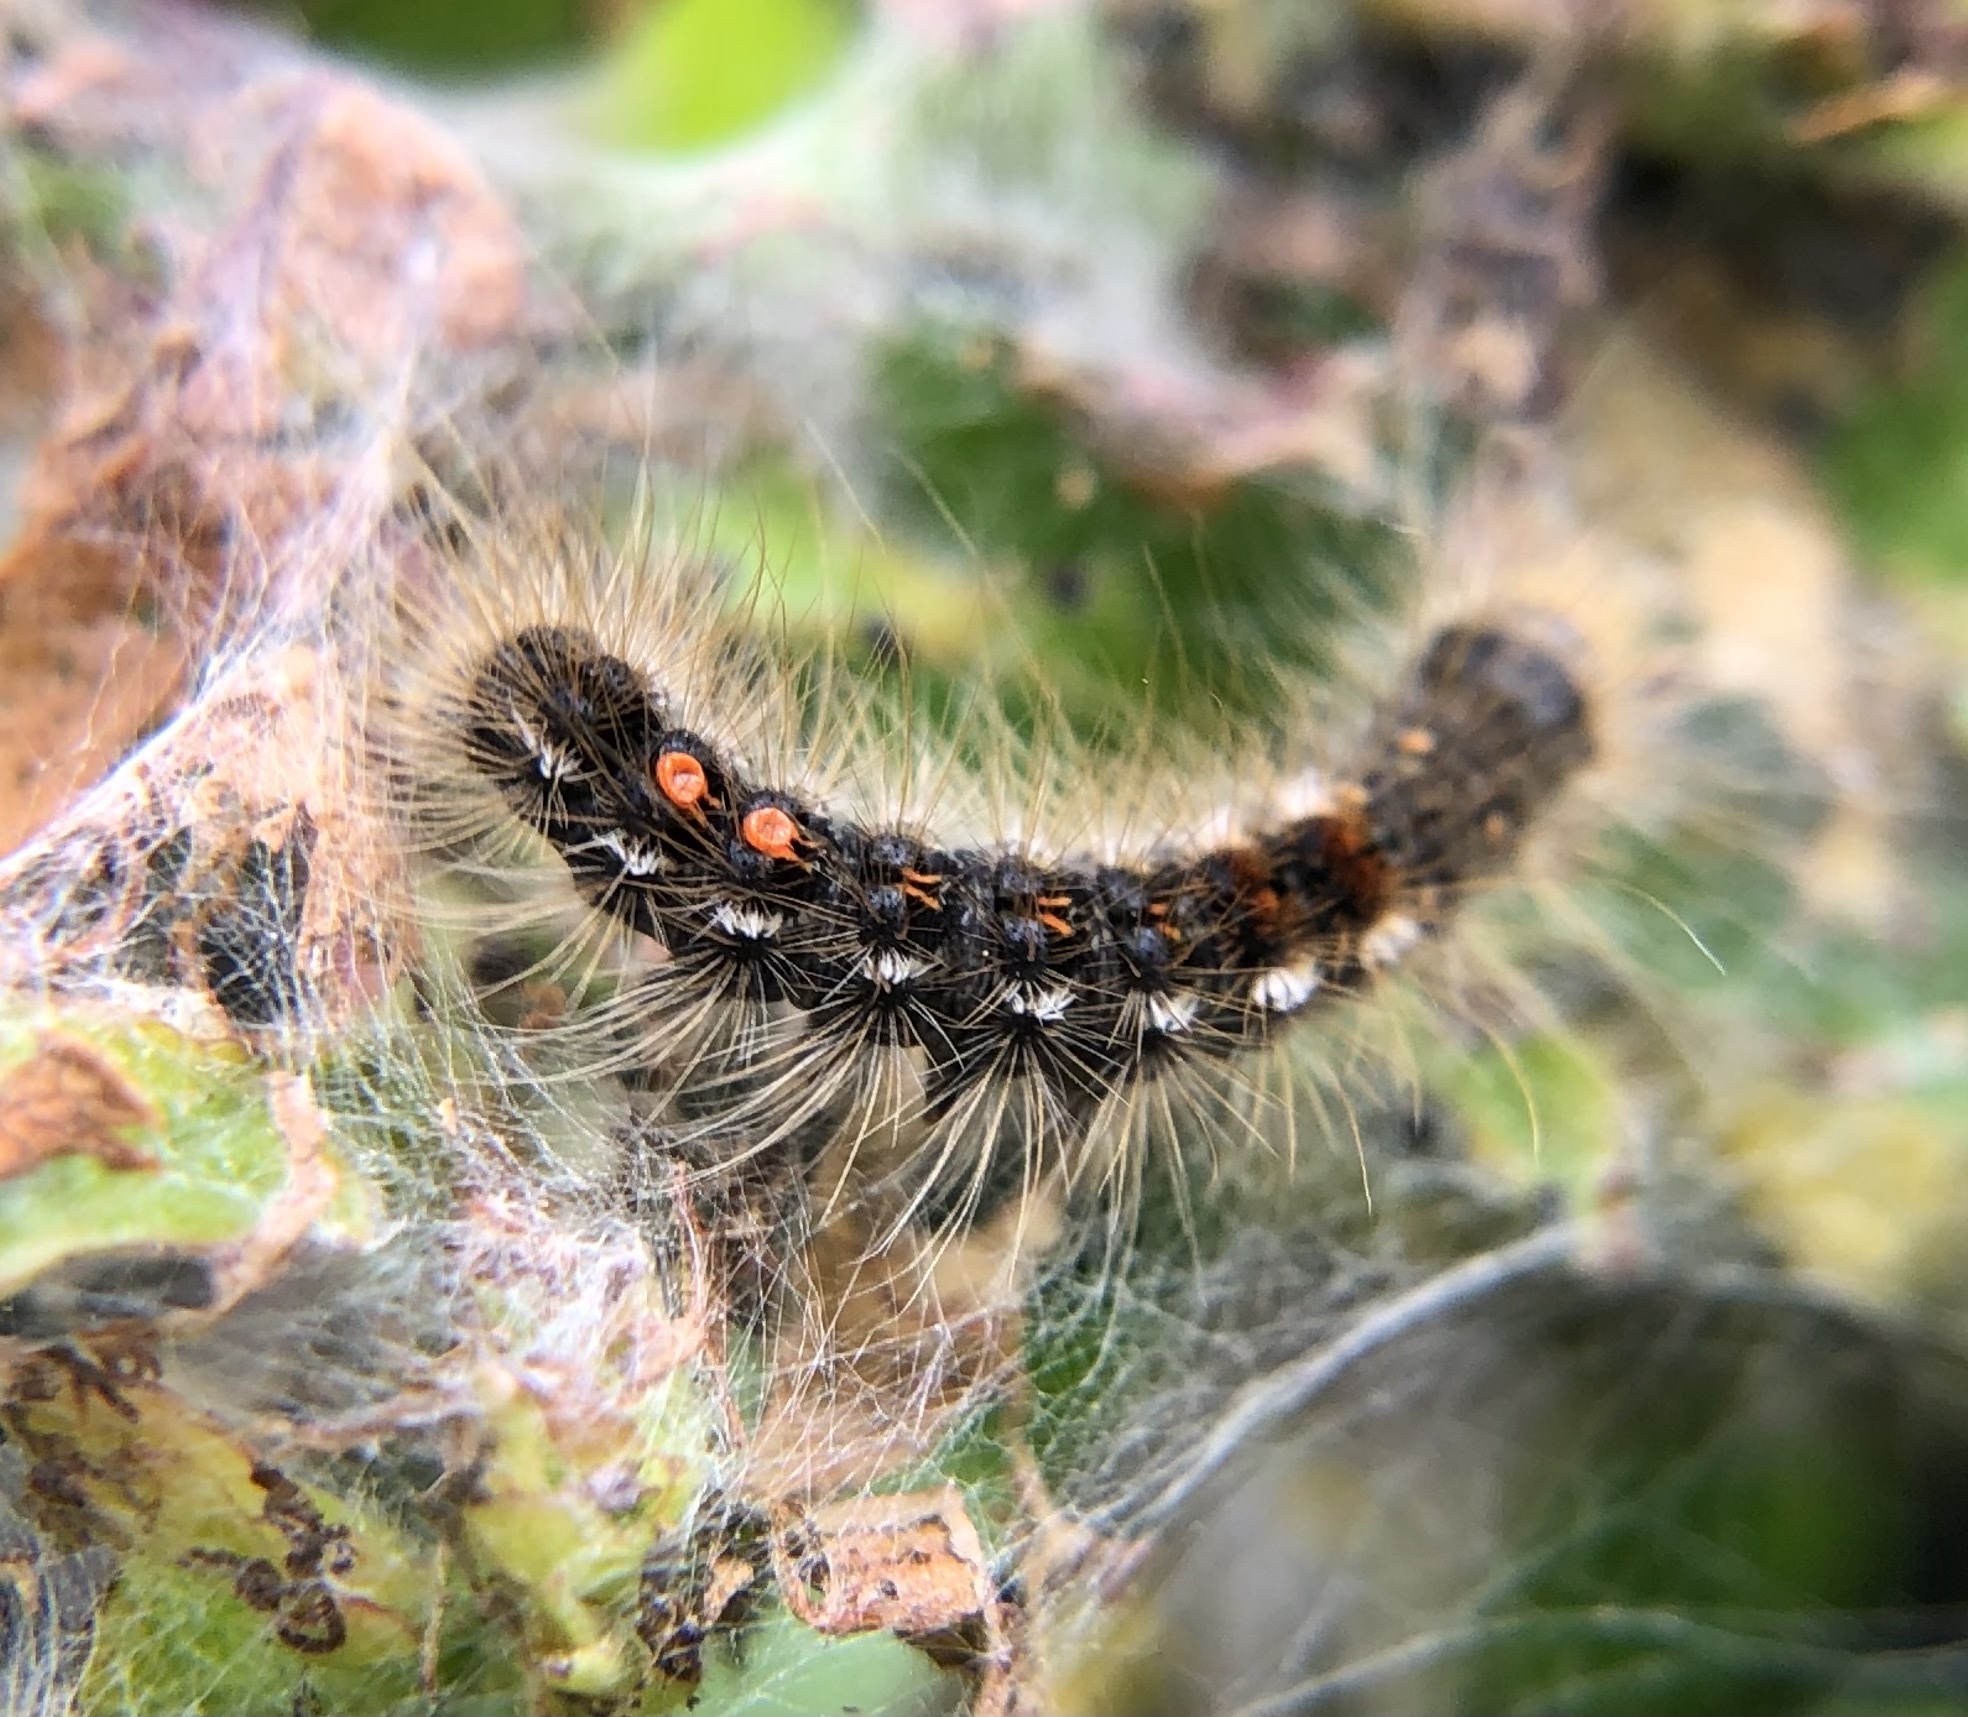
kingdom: Animalia
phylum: Arthropoda
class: Insecta
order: Lepidoptera
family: Erebidae
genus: Euproctis
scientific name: Euproctis chrysorrhoea
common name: Brown-tail
